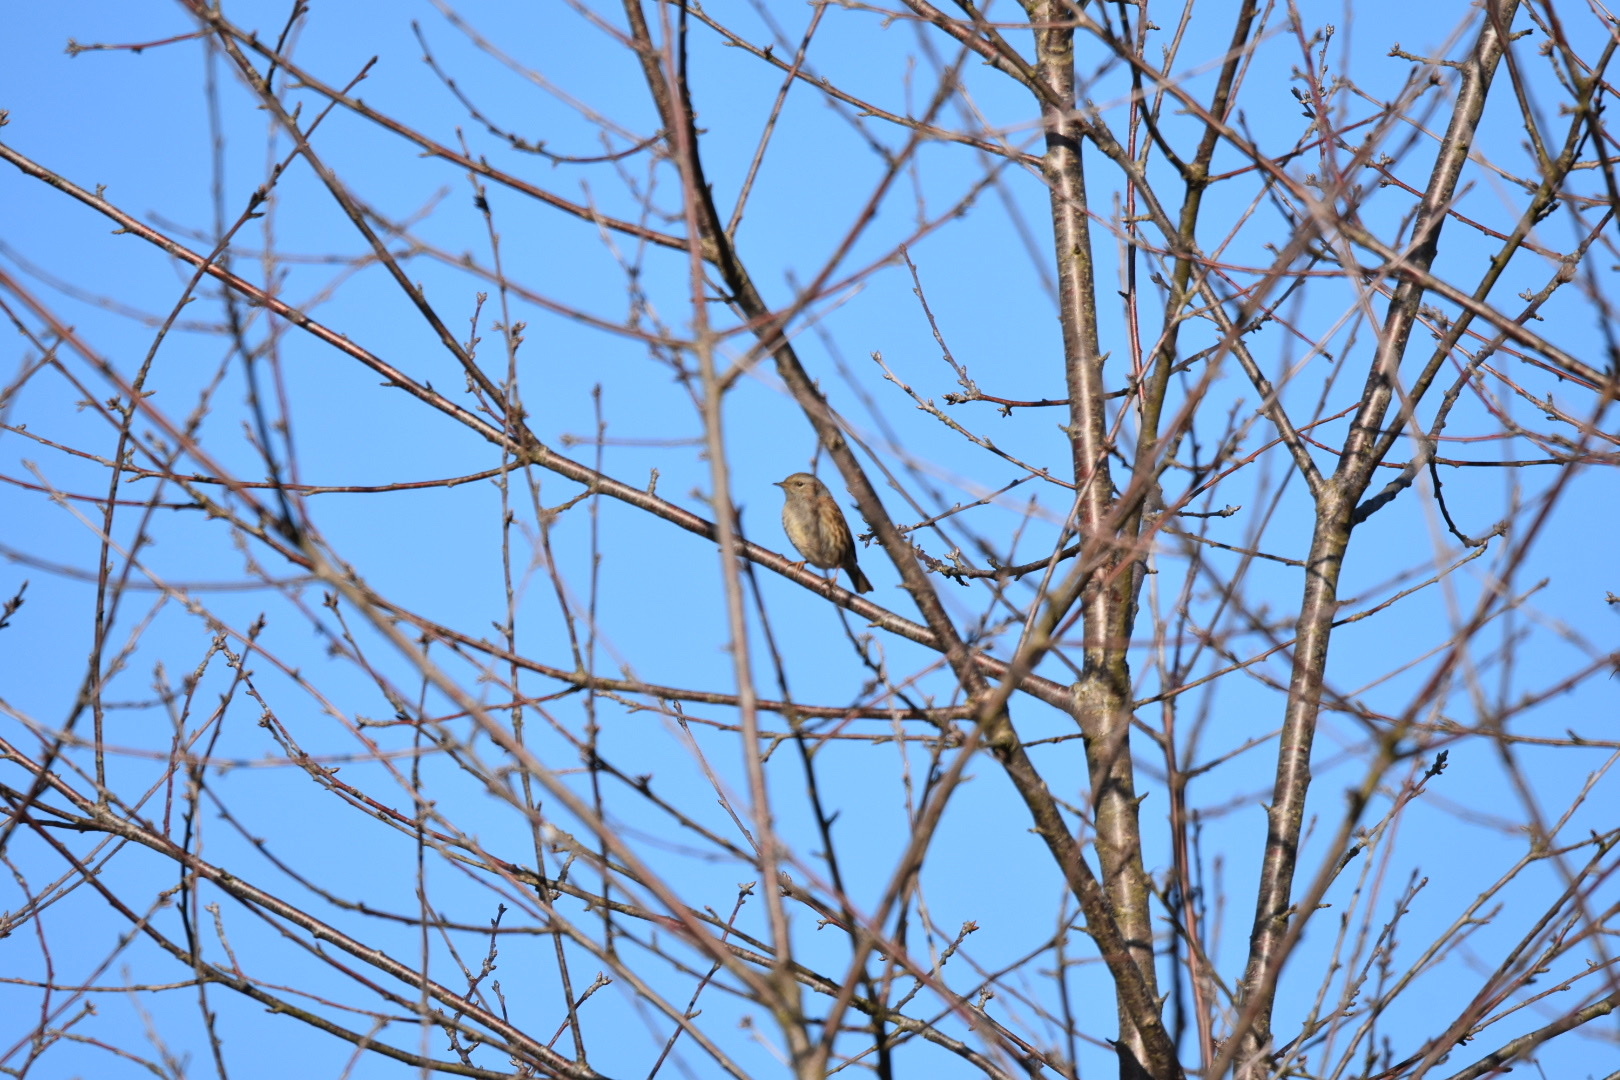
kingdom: Animalia
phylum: Chordata
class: Aves
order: Passeriformes
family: Prunellidae
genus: Prunella
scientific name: Prunella modularis
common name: Dunnock
